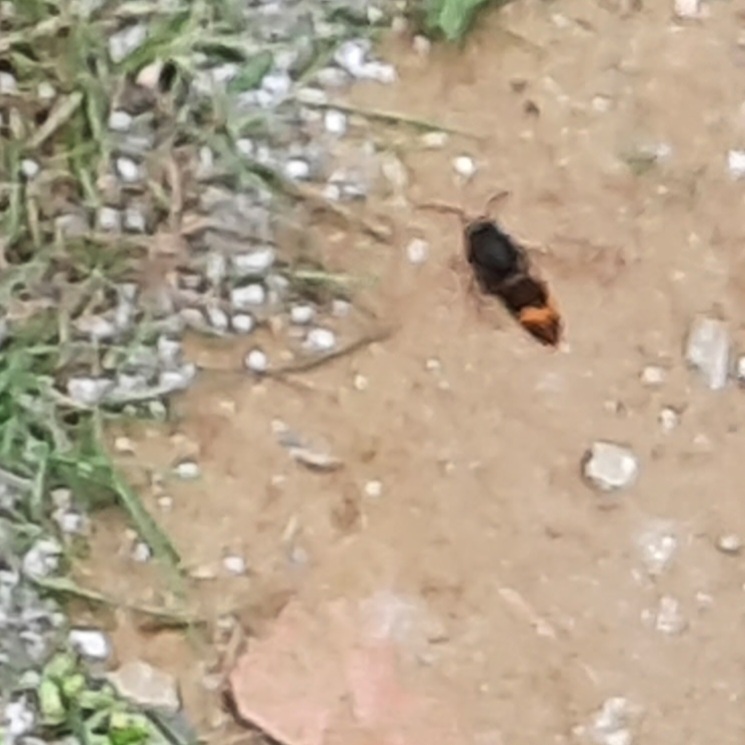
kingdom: Animalia
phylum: Arthropoda
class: Insecta
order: Hymenoptera
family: Vespidae
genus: Vespa
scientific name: Vespa velutina
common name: Asian hornet
